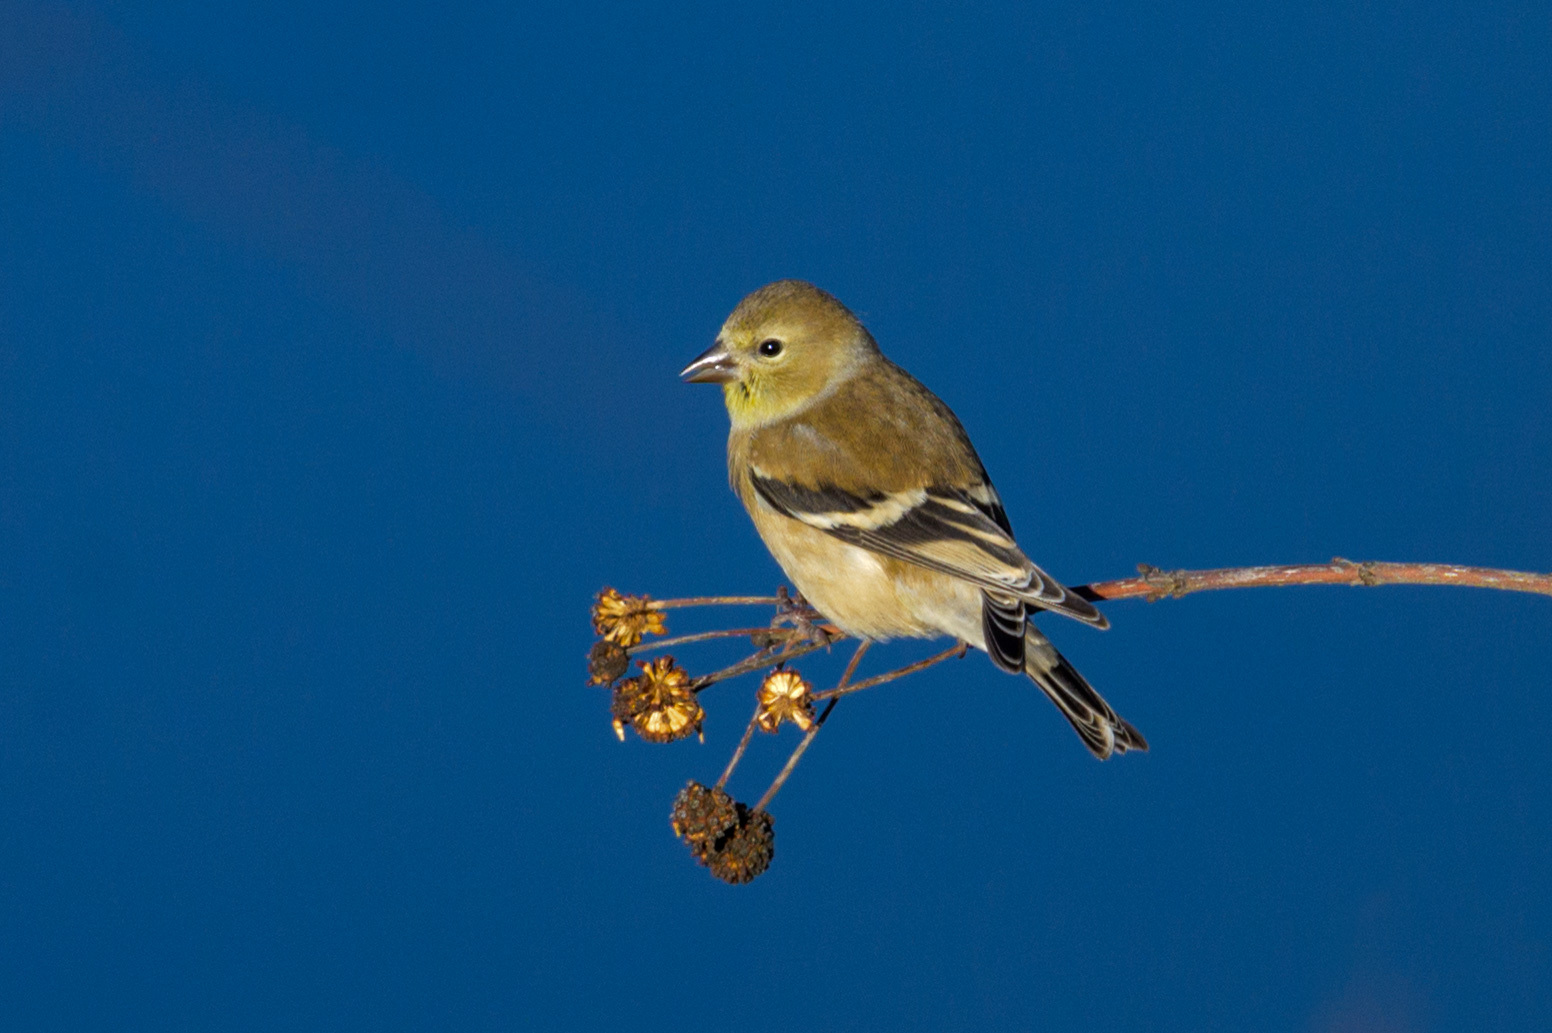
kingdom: Animalia
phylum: Chordata
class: Aves
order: Passeriformes
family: Fringillidae
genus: Spinus
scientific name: Spinus tristis
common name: American goldfinch
